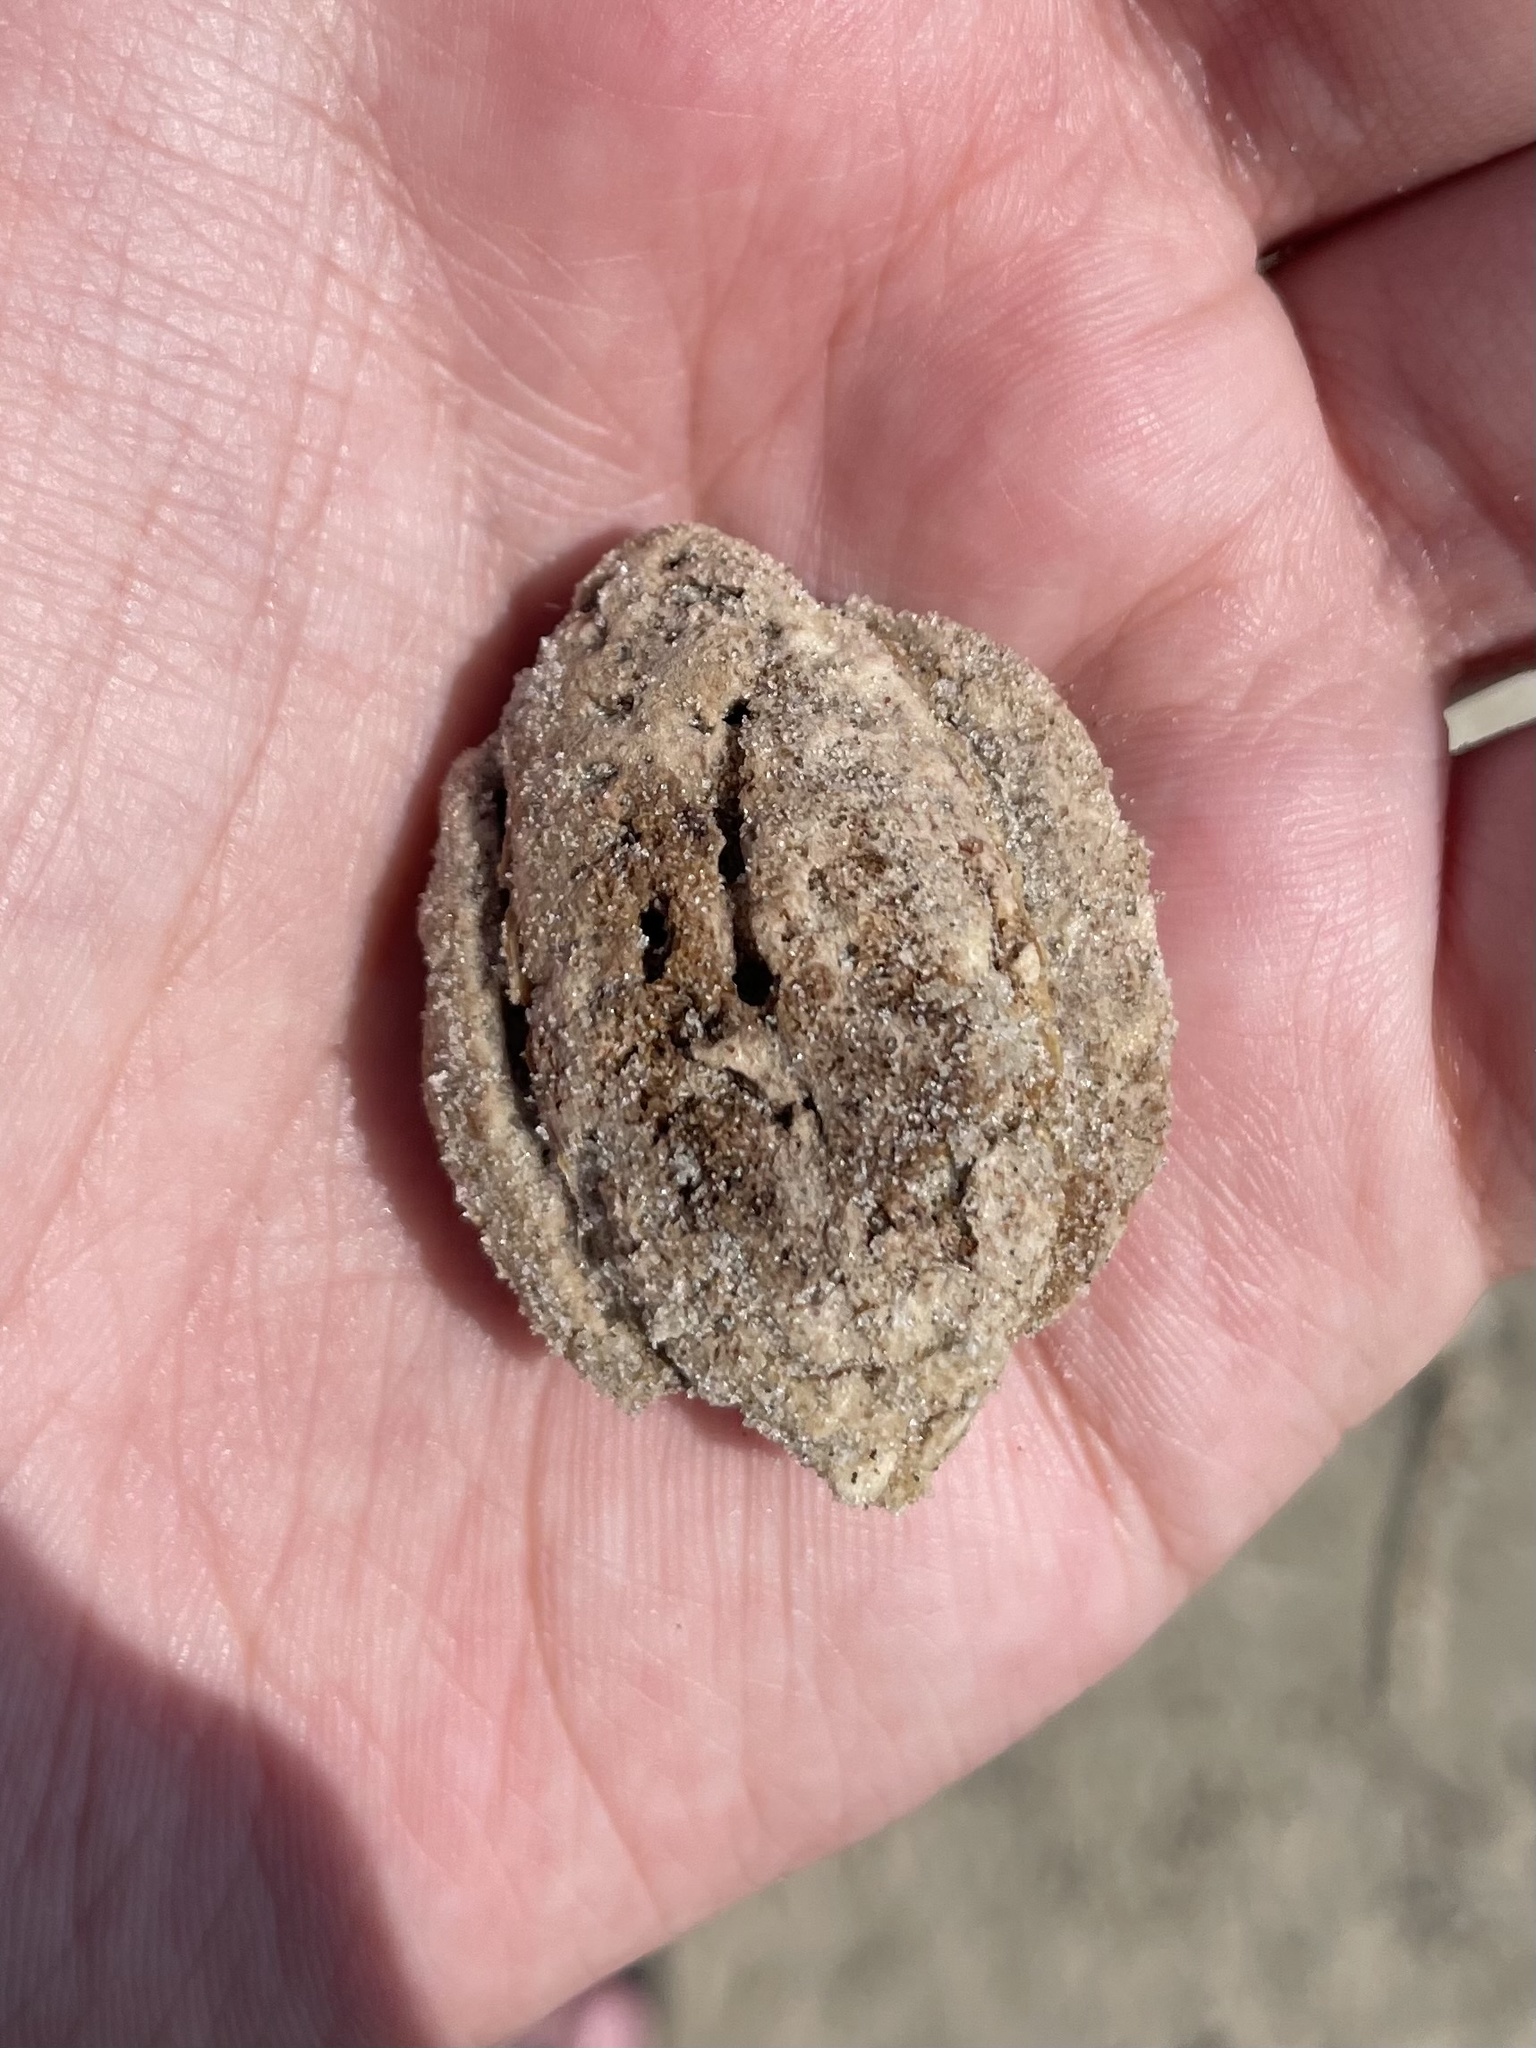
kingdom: Plantae
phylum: Tracheophyta
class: Magnoliopsida
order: Myrtales
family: Combretaceae
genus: Terminalia
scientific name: Terminalia catappa
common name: Tropical almond
